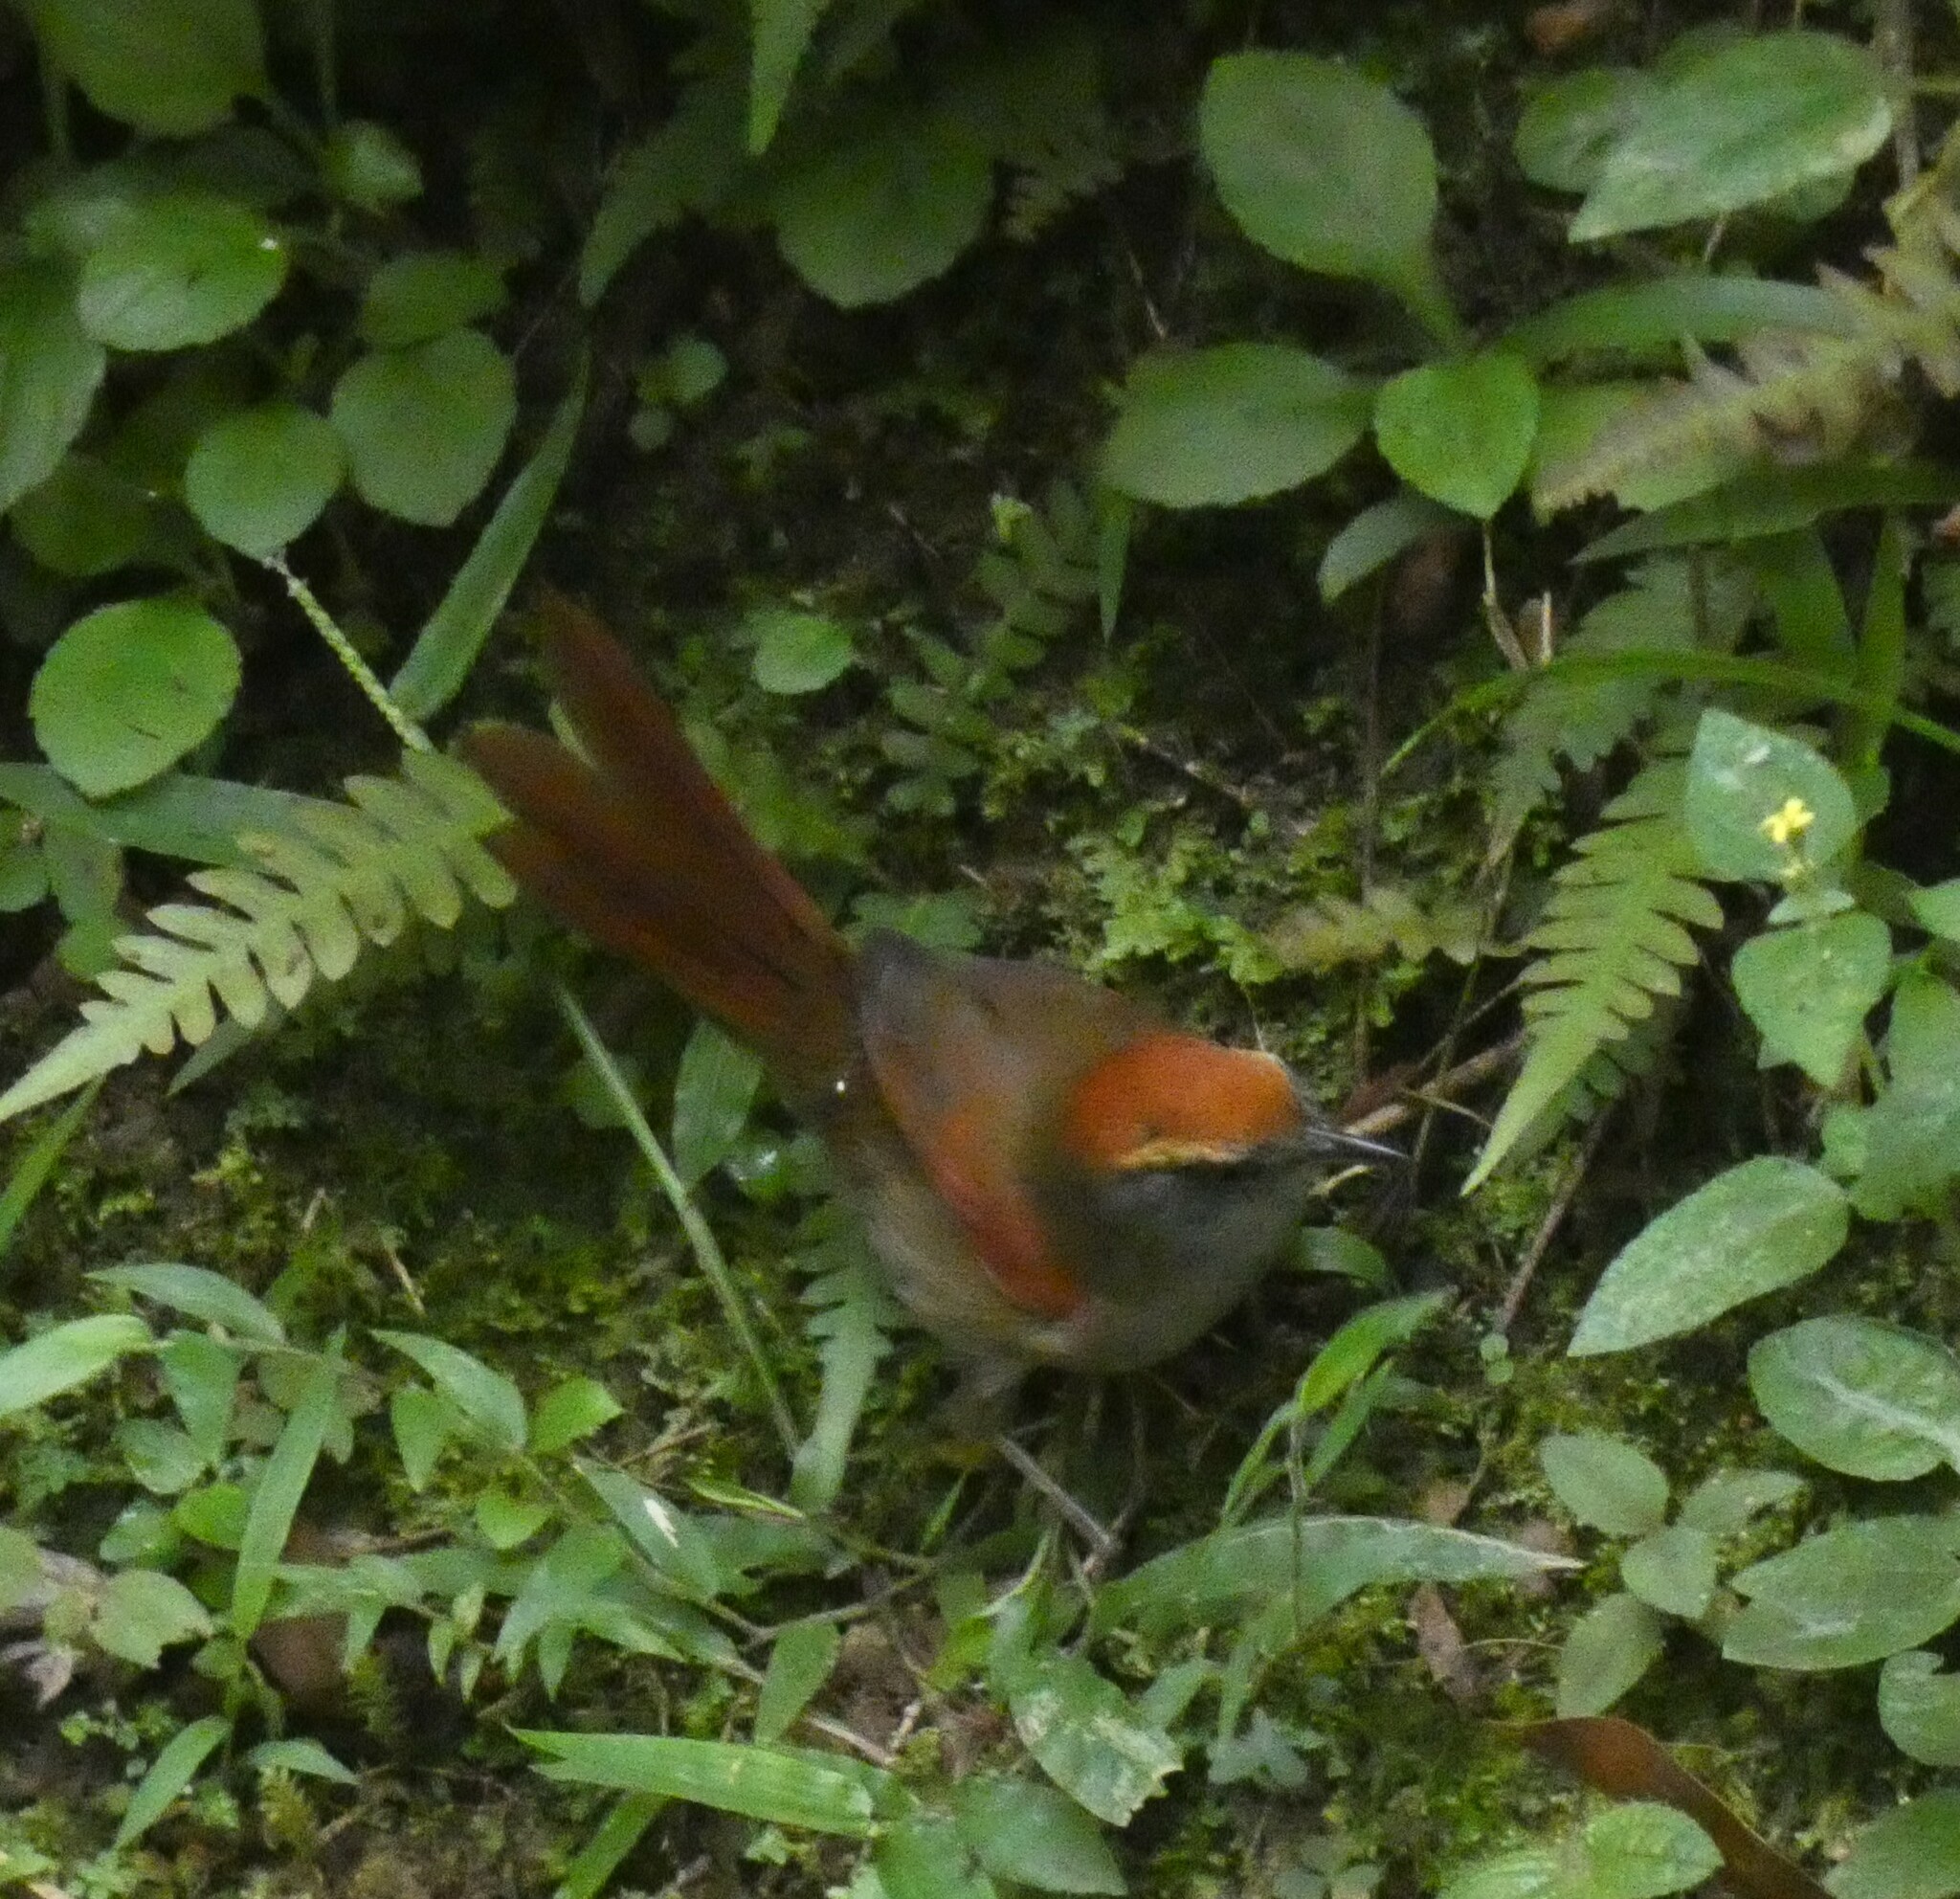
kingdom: Animalia
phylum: Chordata
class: Aves
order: Passeriformes
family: Furnariidae
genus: Synallaxis
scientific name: Synallaxis ruficapilla
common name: Rufous-capped spinetail
